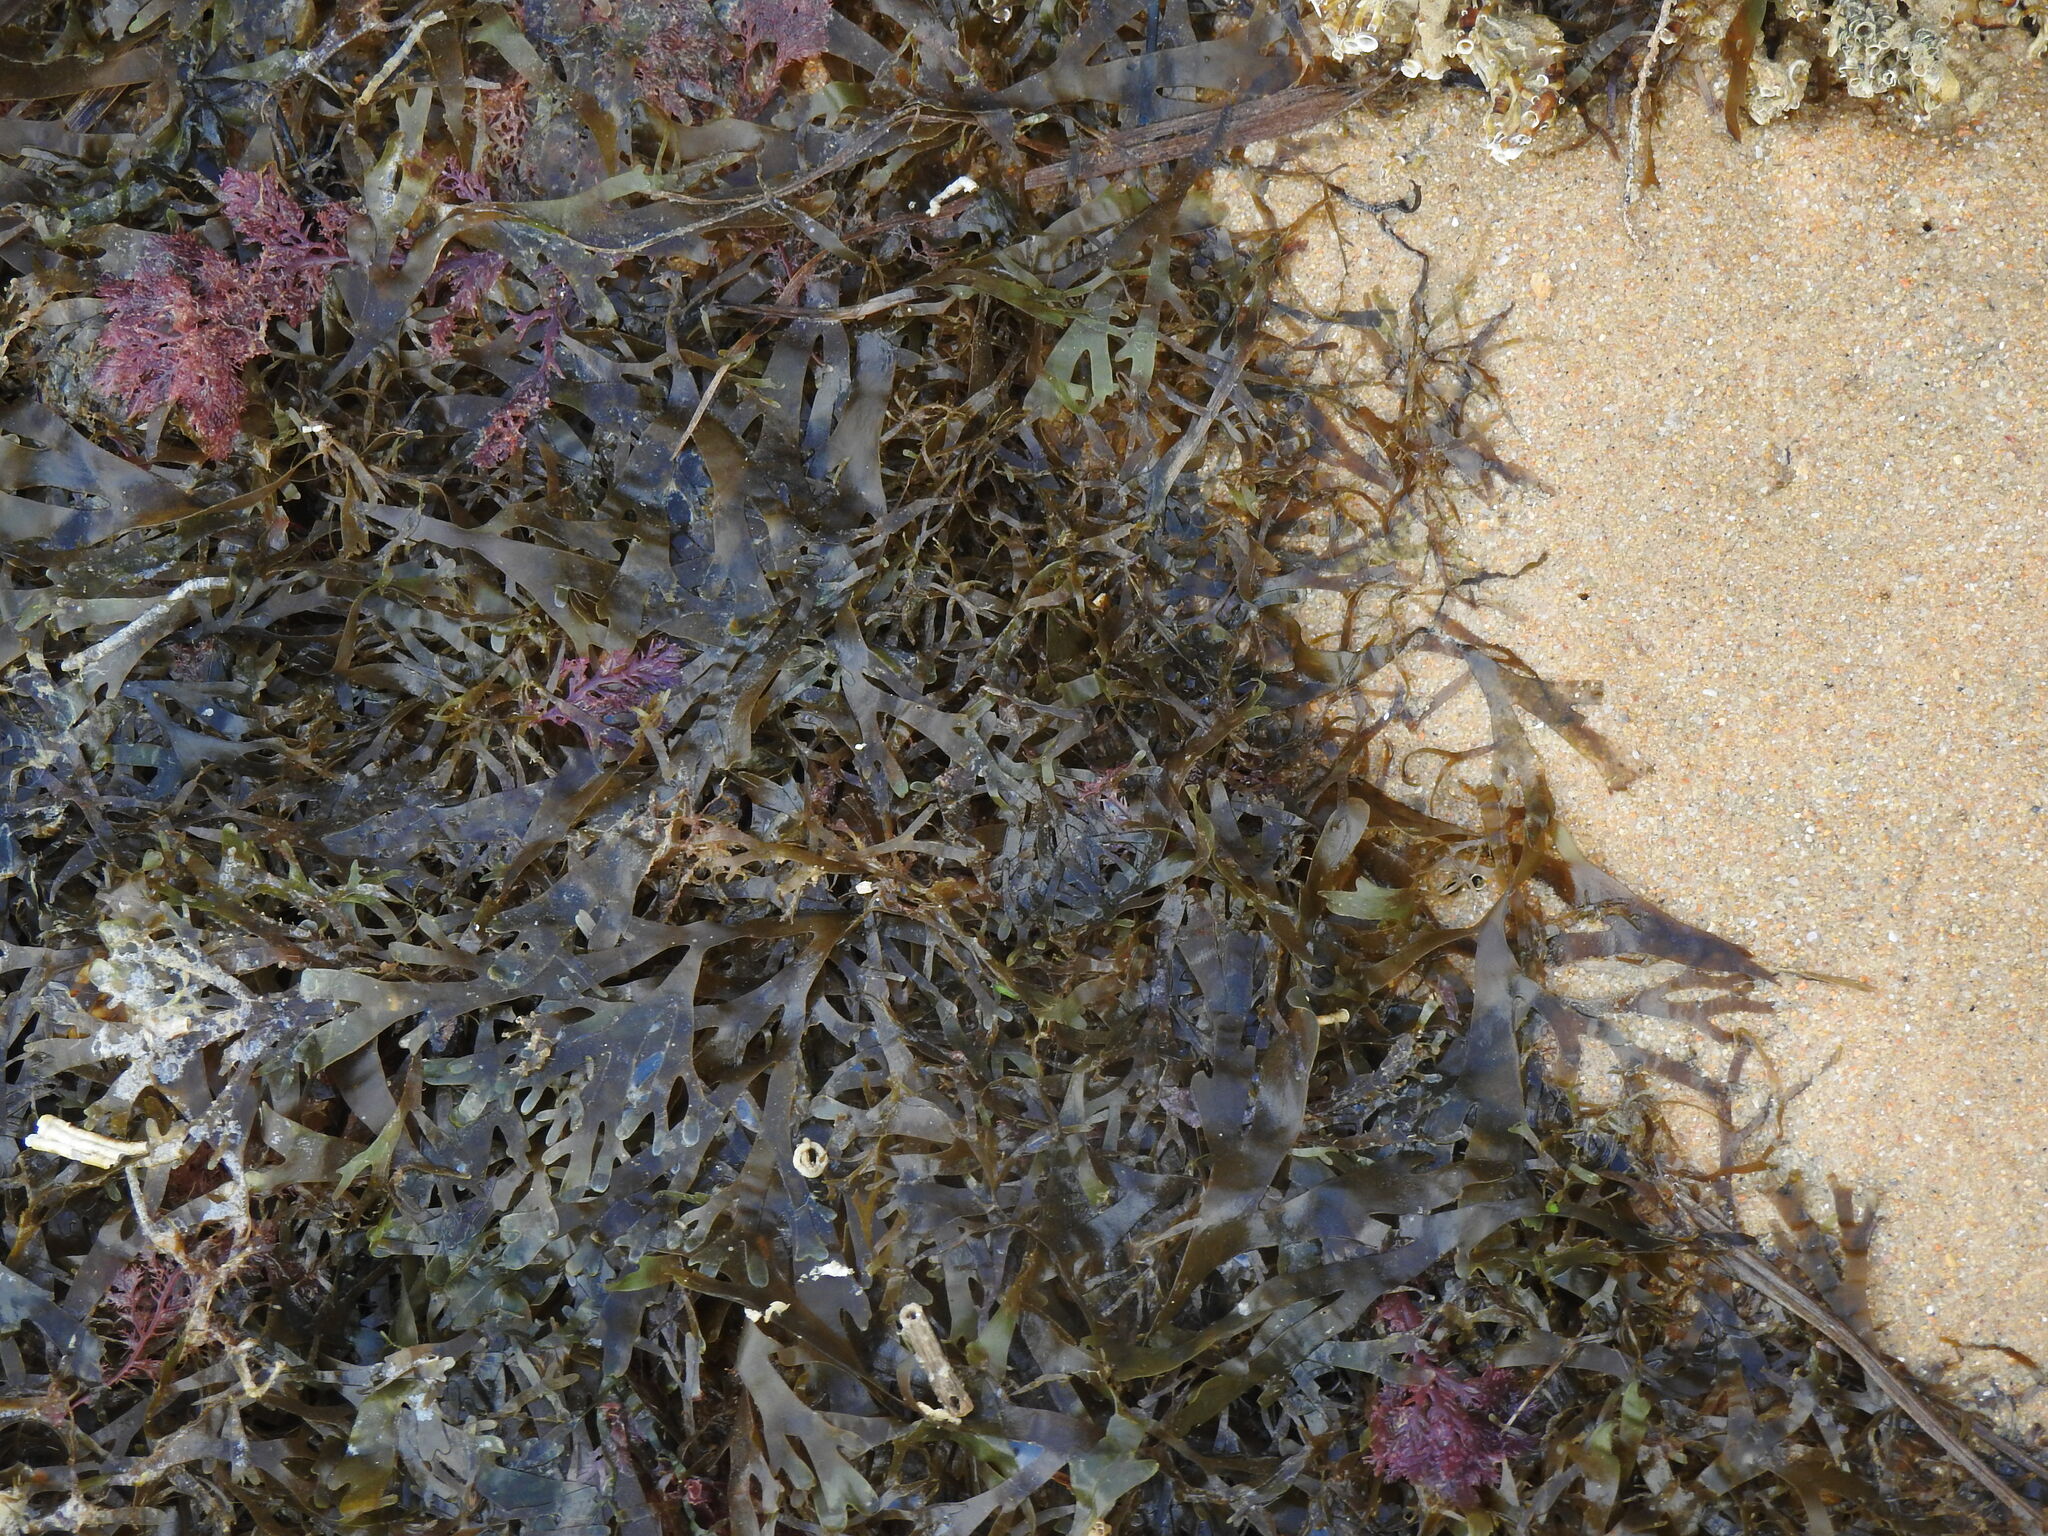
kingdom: Chromista
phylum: Ochrophyta
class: Phaeophyceae
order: Dictyotales
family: Dictyotaceae
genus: Rugulopteryx
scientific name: Rugulopteryx okamurae
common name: Algae stomp
